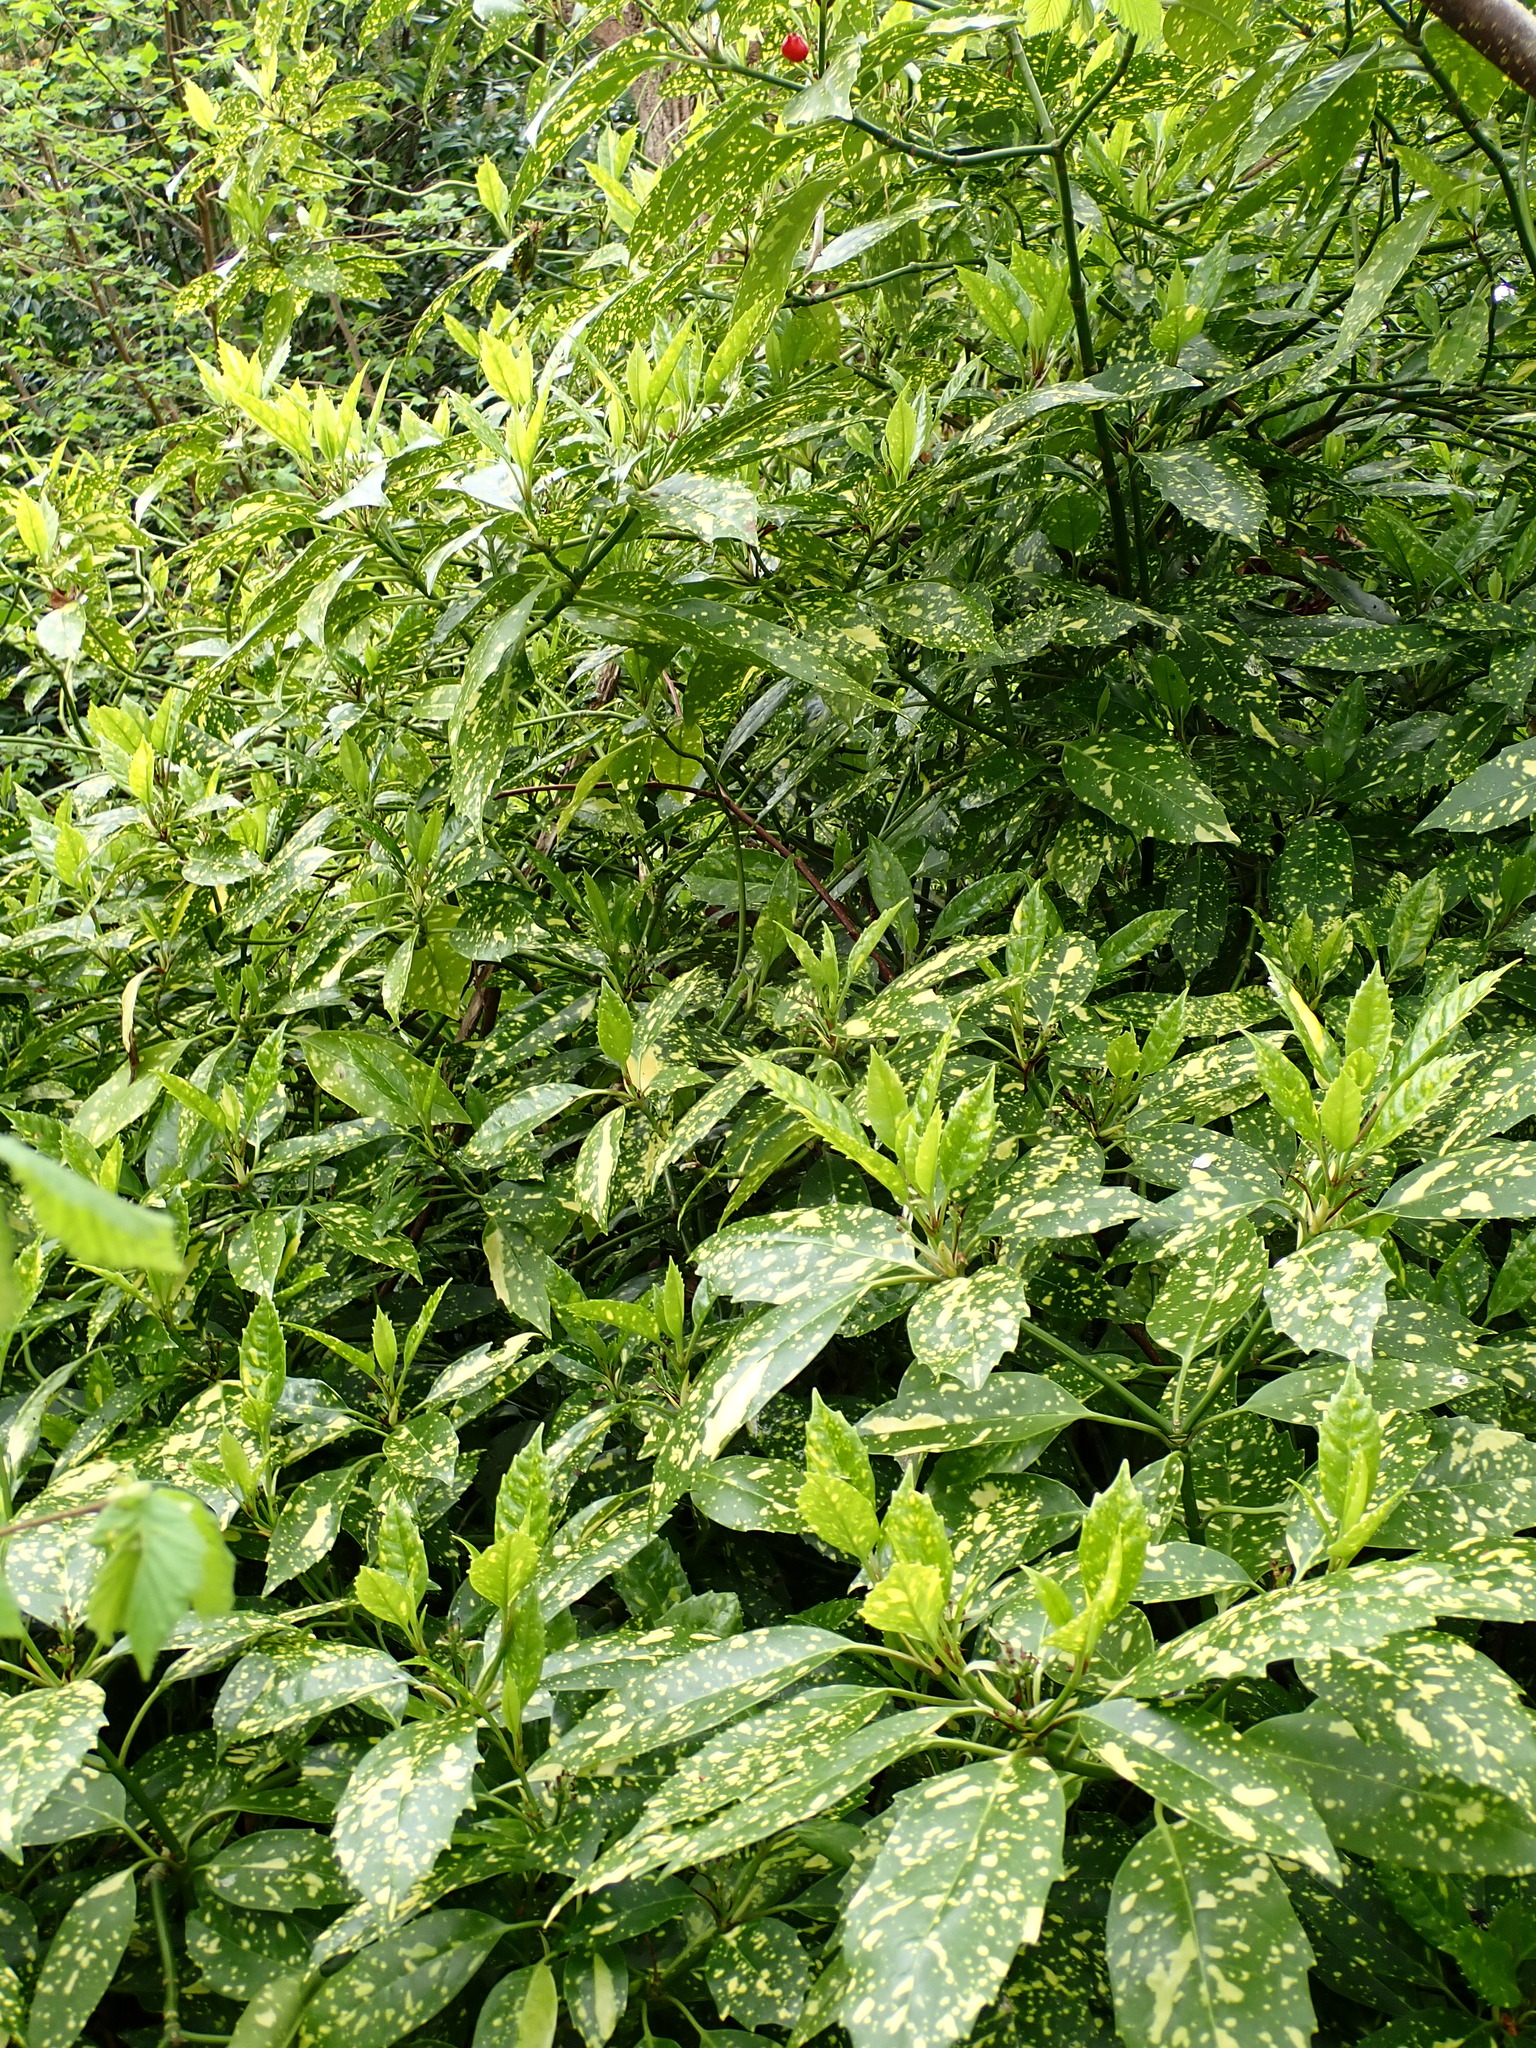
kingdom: Plantae
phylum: Tracheophyta
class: Magnoliopsida
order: Garryales
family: Garryaceae
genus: Aucuba
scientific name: Aucuba japonica
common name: Spotted-laurel
